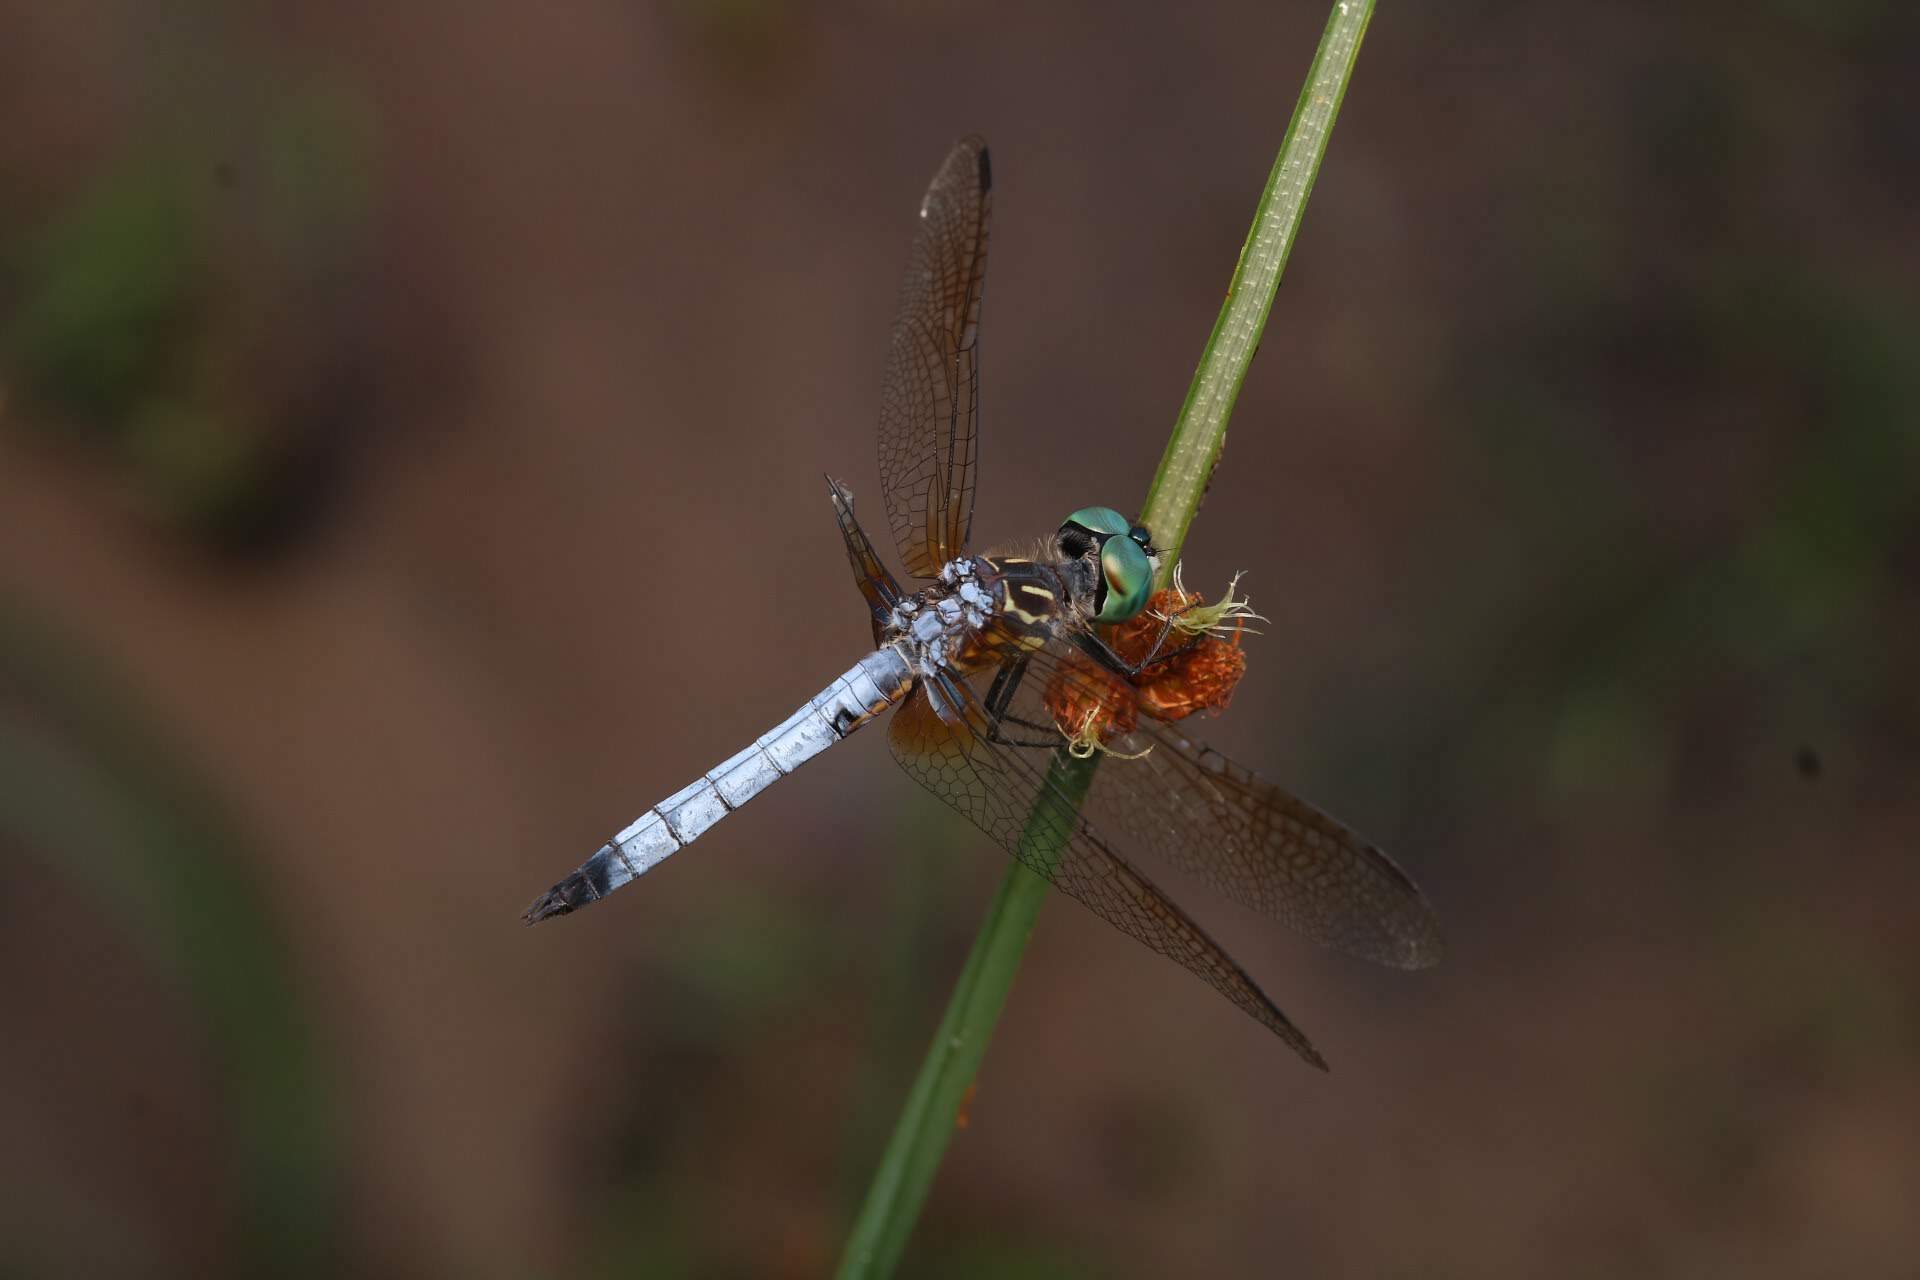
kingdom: Animalia
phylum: Arthropoda
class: Insecta
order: Odonata
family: Libellulidae
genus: Pachydiplax
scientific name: Pachydiplax longipennis
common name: Blue dasher
